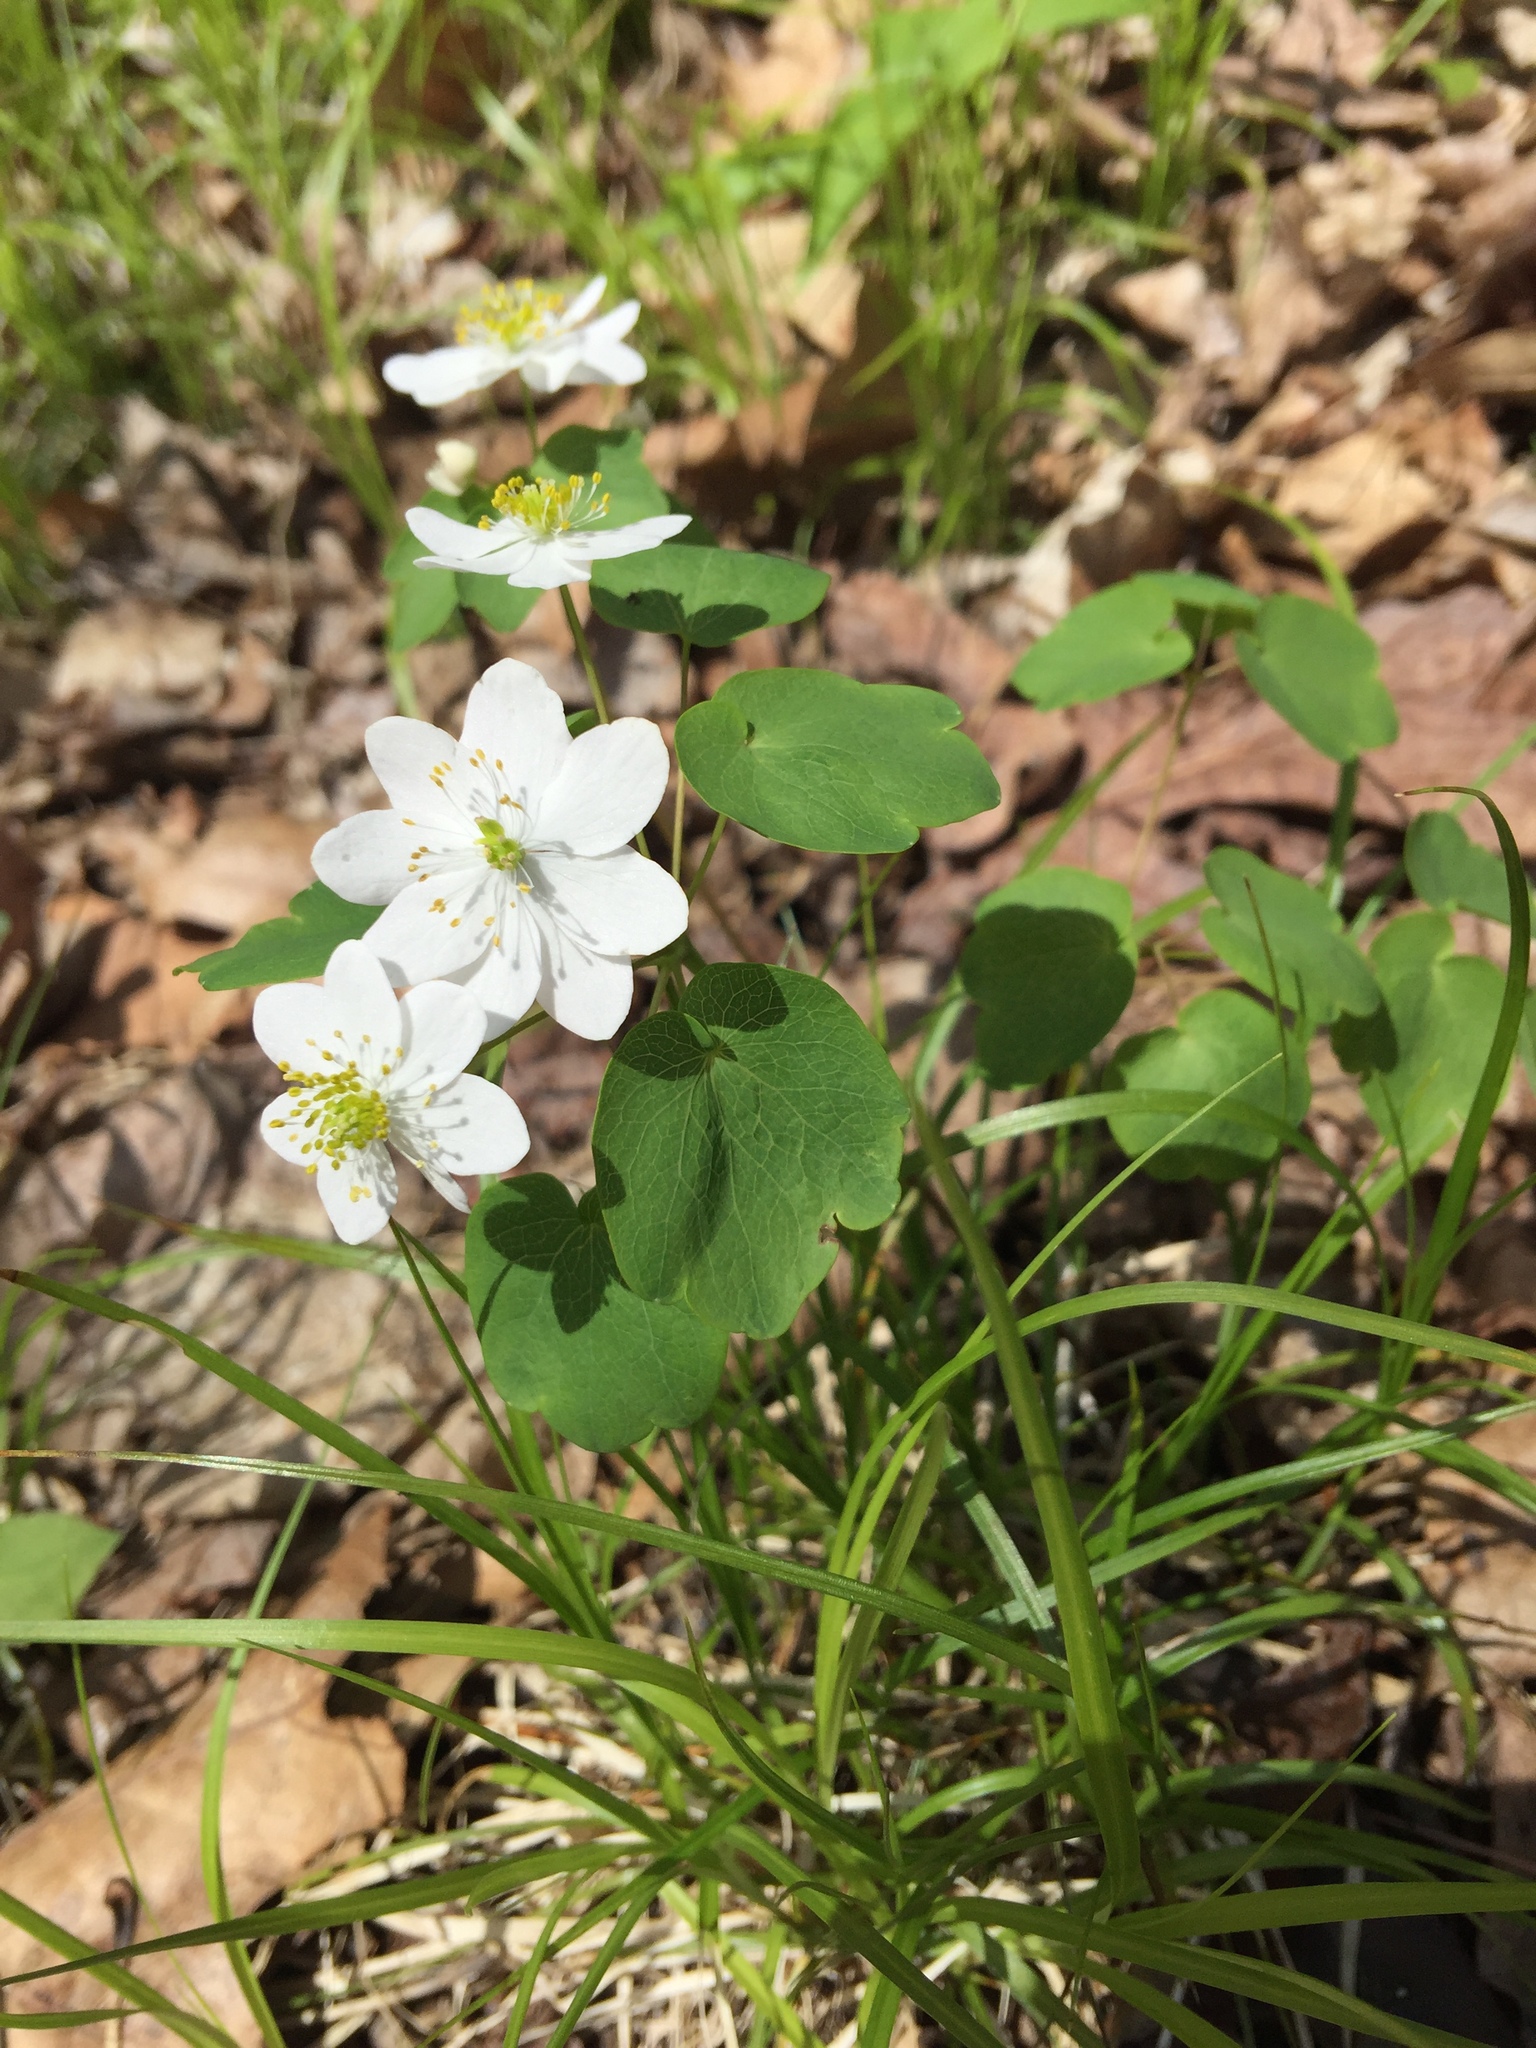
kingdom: Plantae
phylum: Tracheophyta
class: Magnoliopsida
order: Ranunculales
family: Ranunculaceae
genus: Thalictrum
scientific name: Thalictrum thalictroides
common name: Rue-anemone
